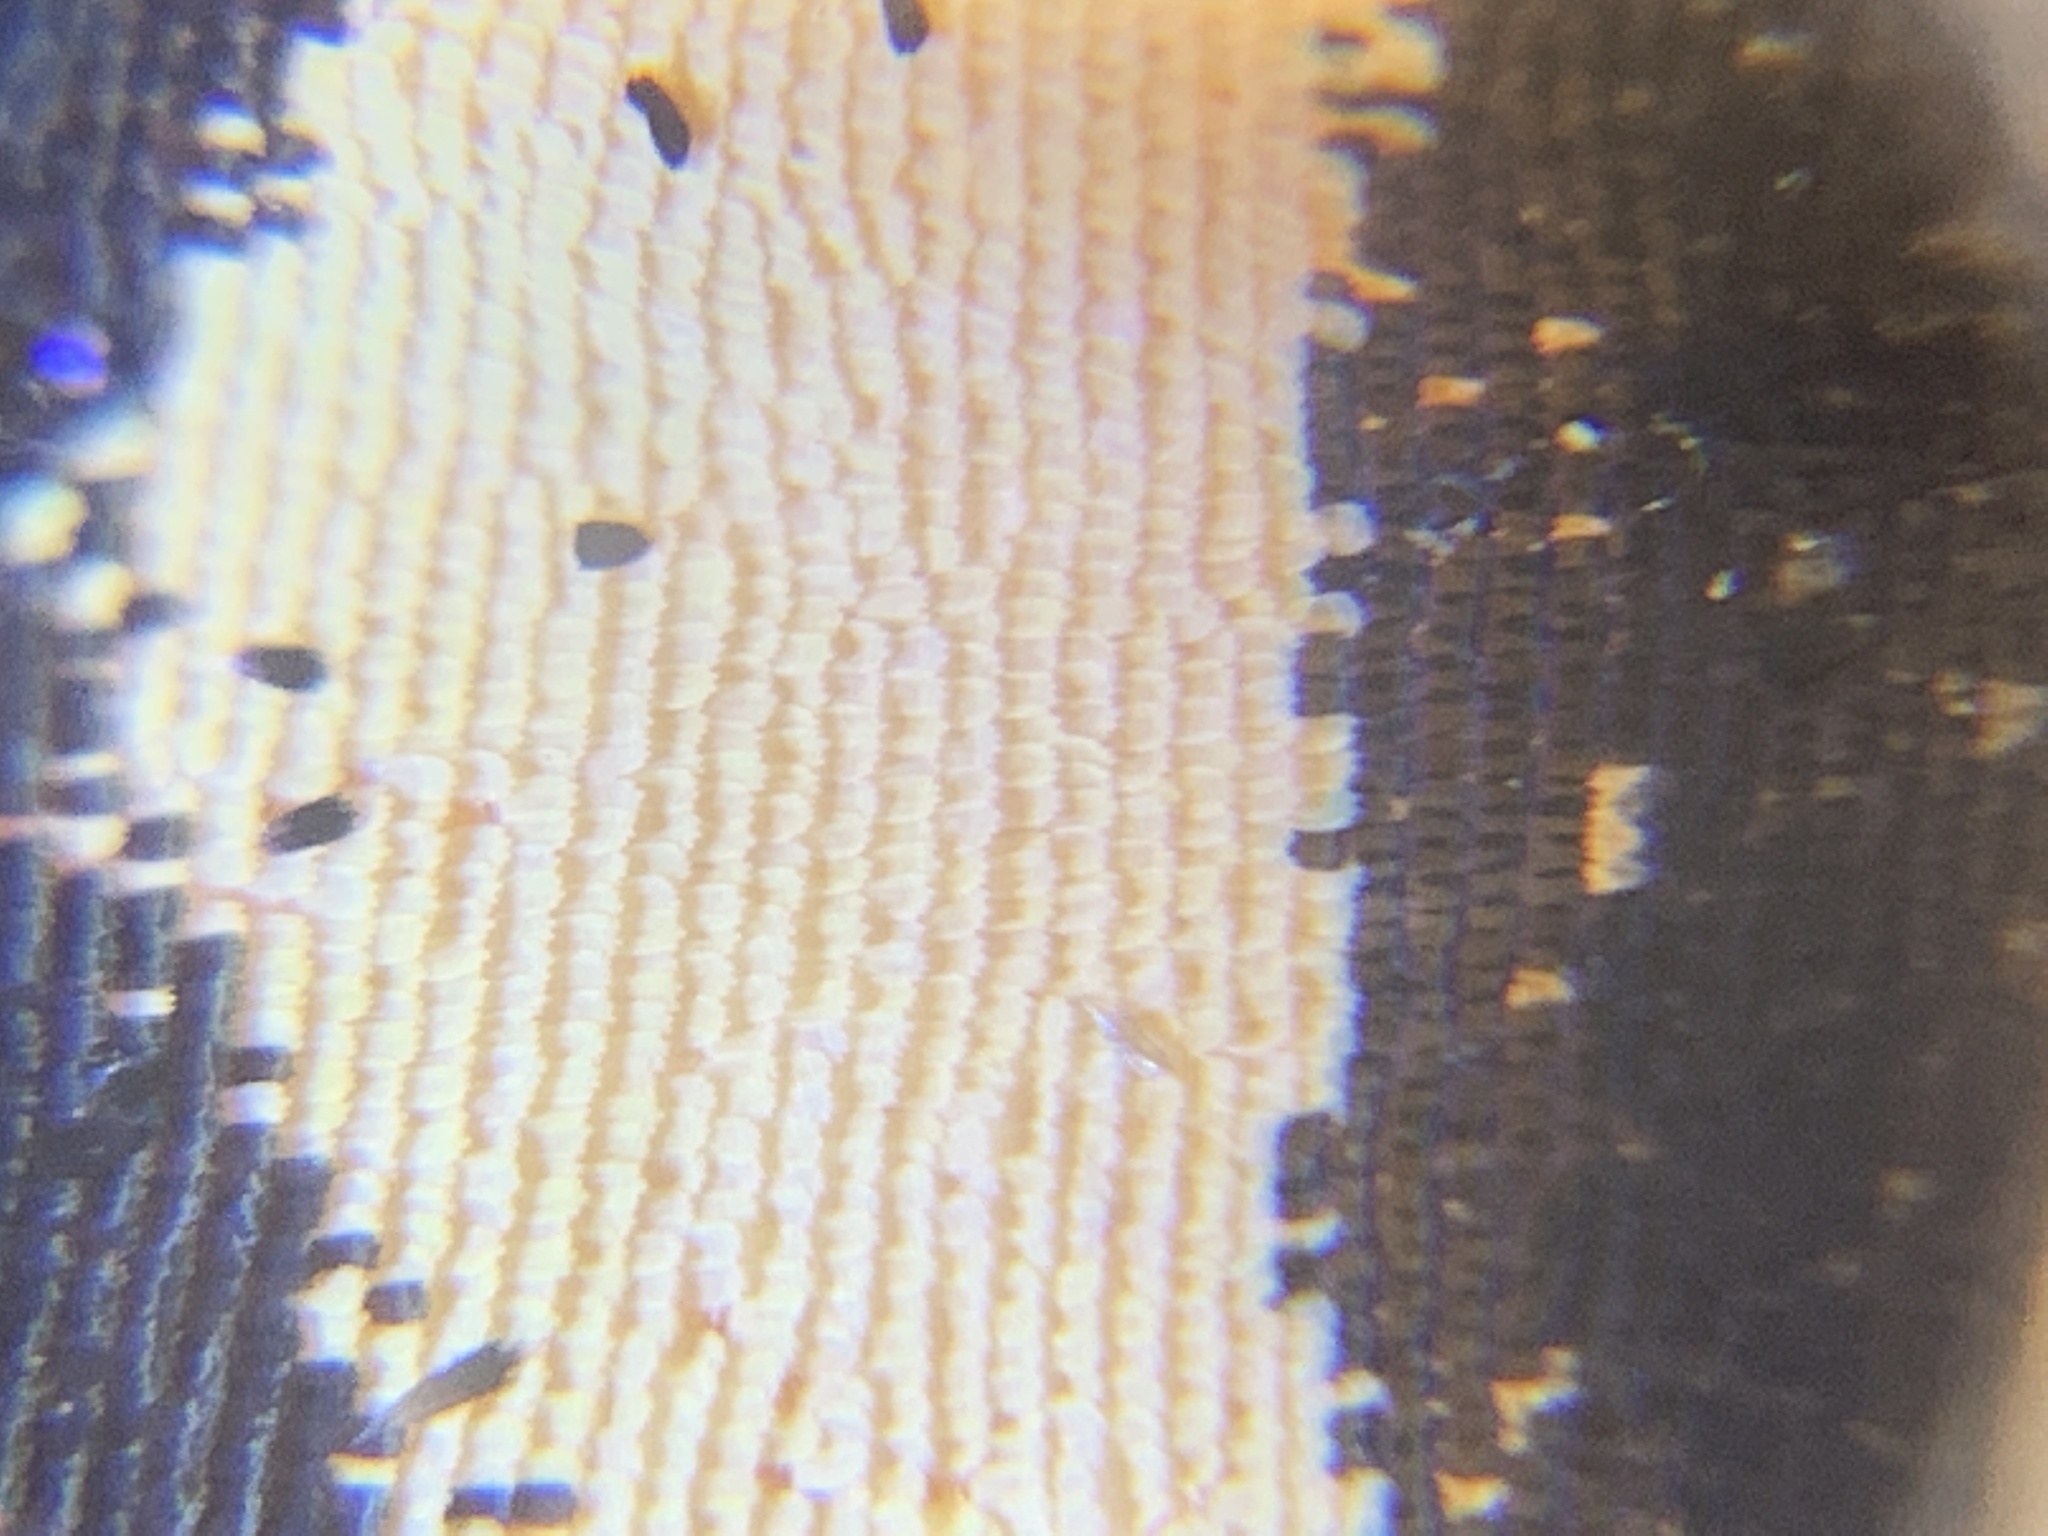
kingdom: Animalia
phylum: Arthropoda
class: Insecta
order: Lepidoptera
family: Papilionidae
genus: Papilio
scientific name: Papilio glaucus
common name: Tiger swallowtail
